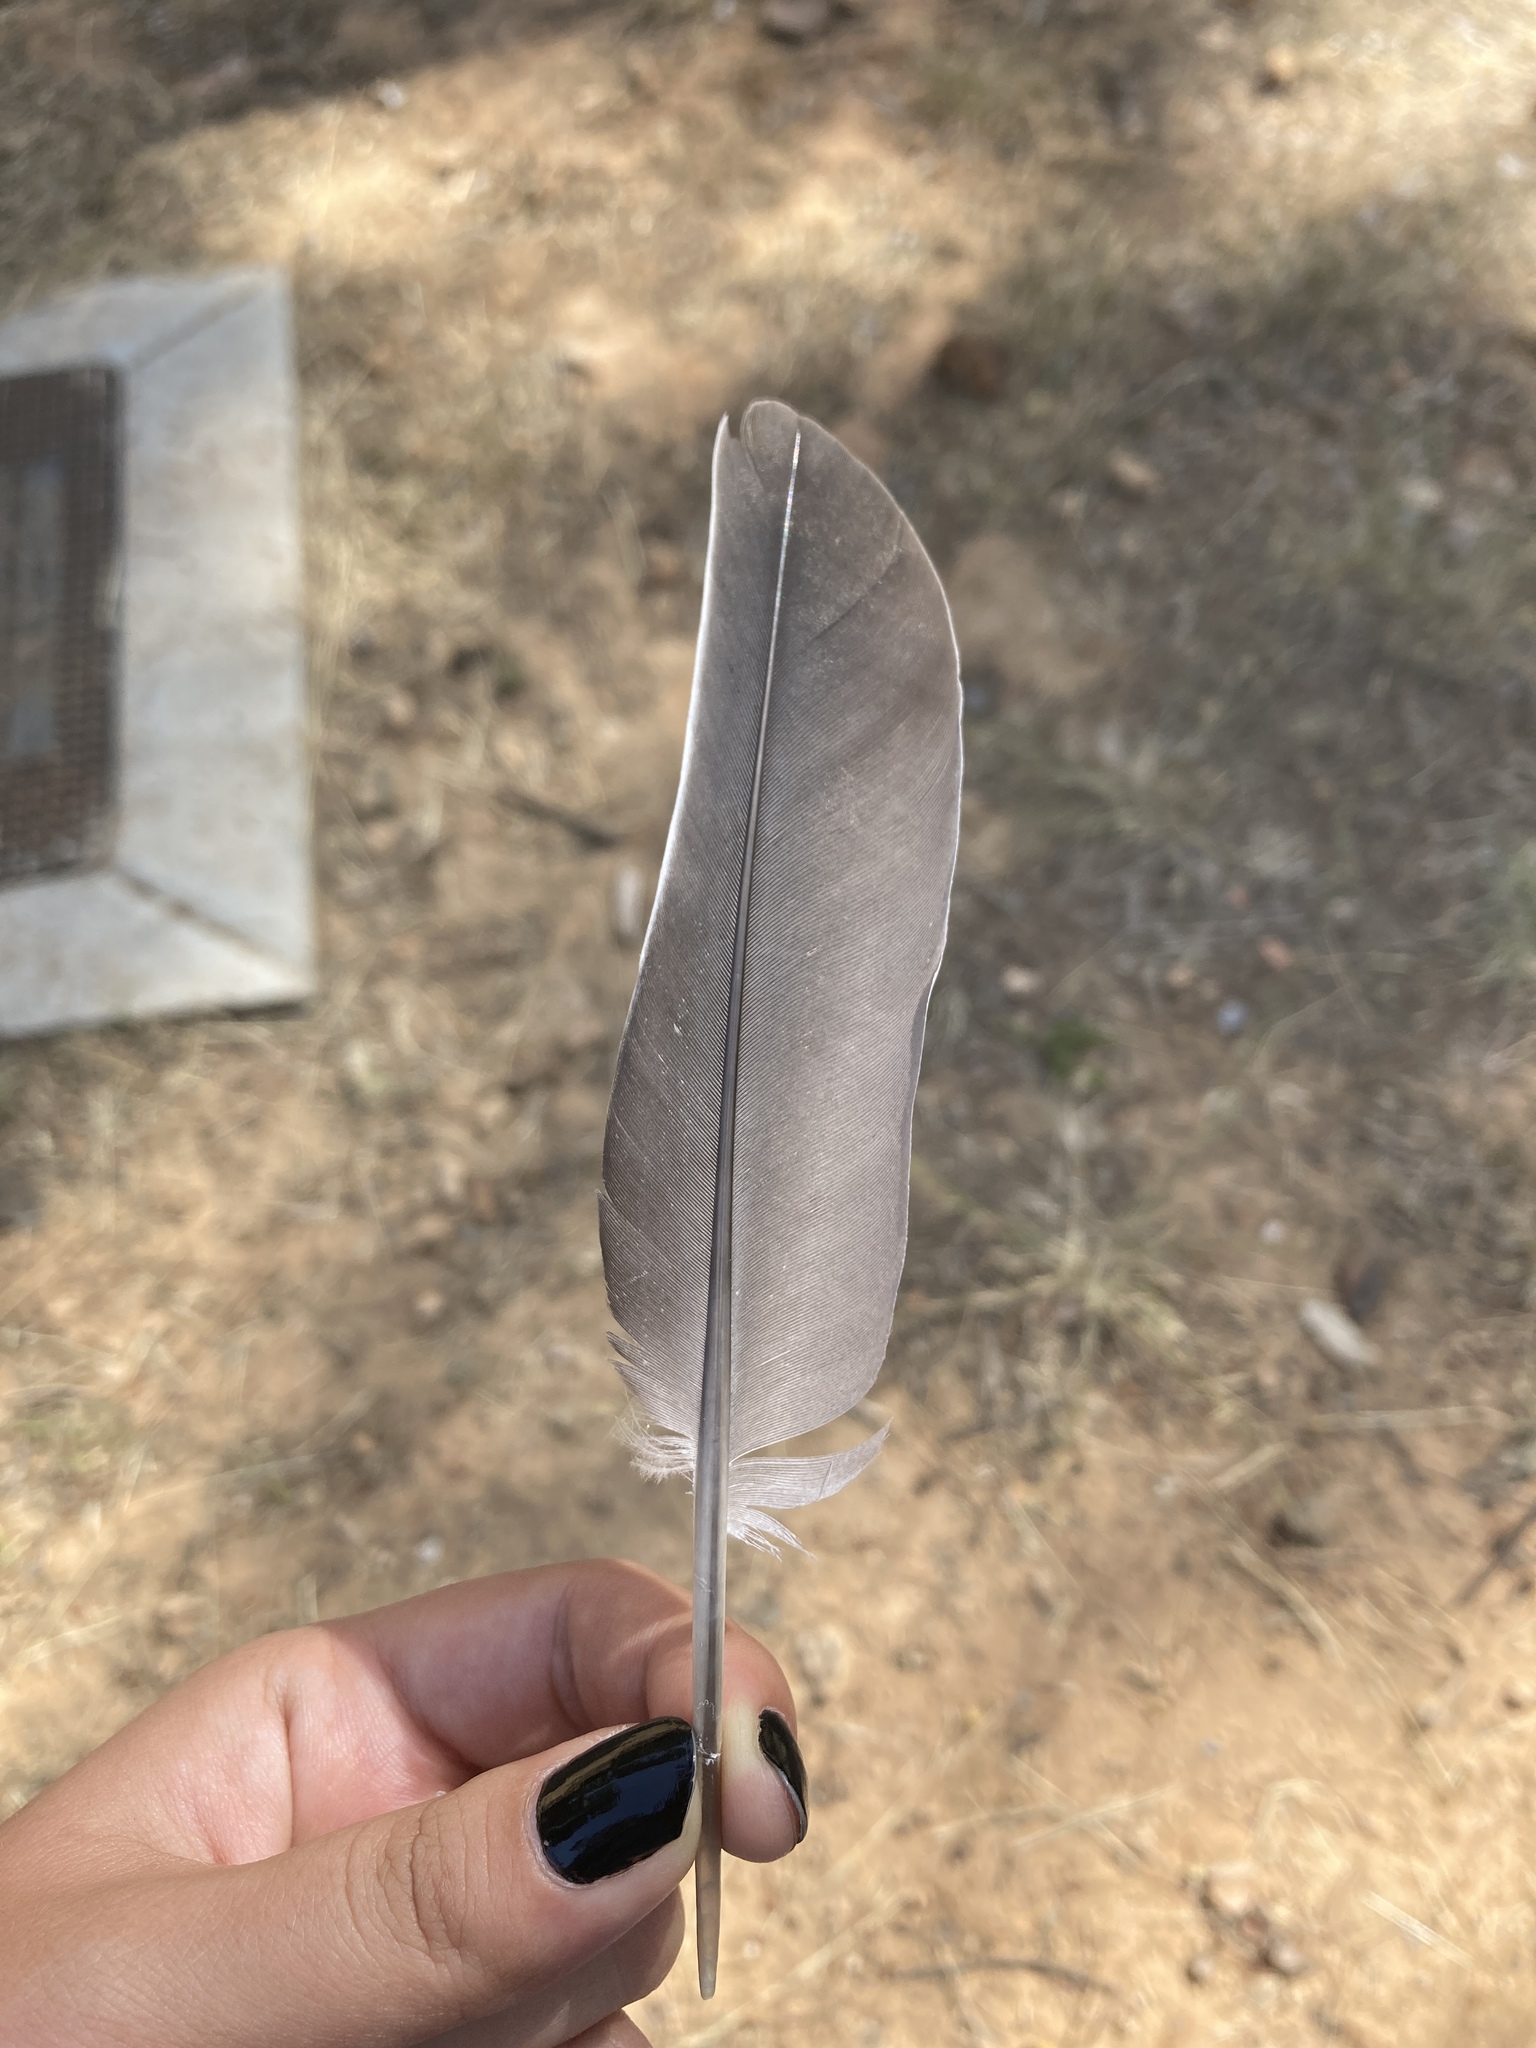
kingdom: Animalia
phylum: Chordata
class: Aves
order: Columbiformes
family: Columbidae
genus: Columba
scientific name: Columba palumbus
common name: Common wood pigeon
